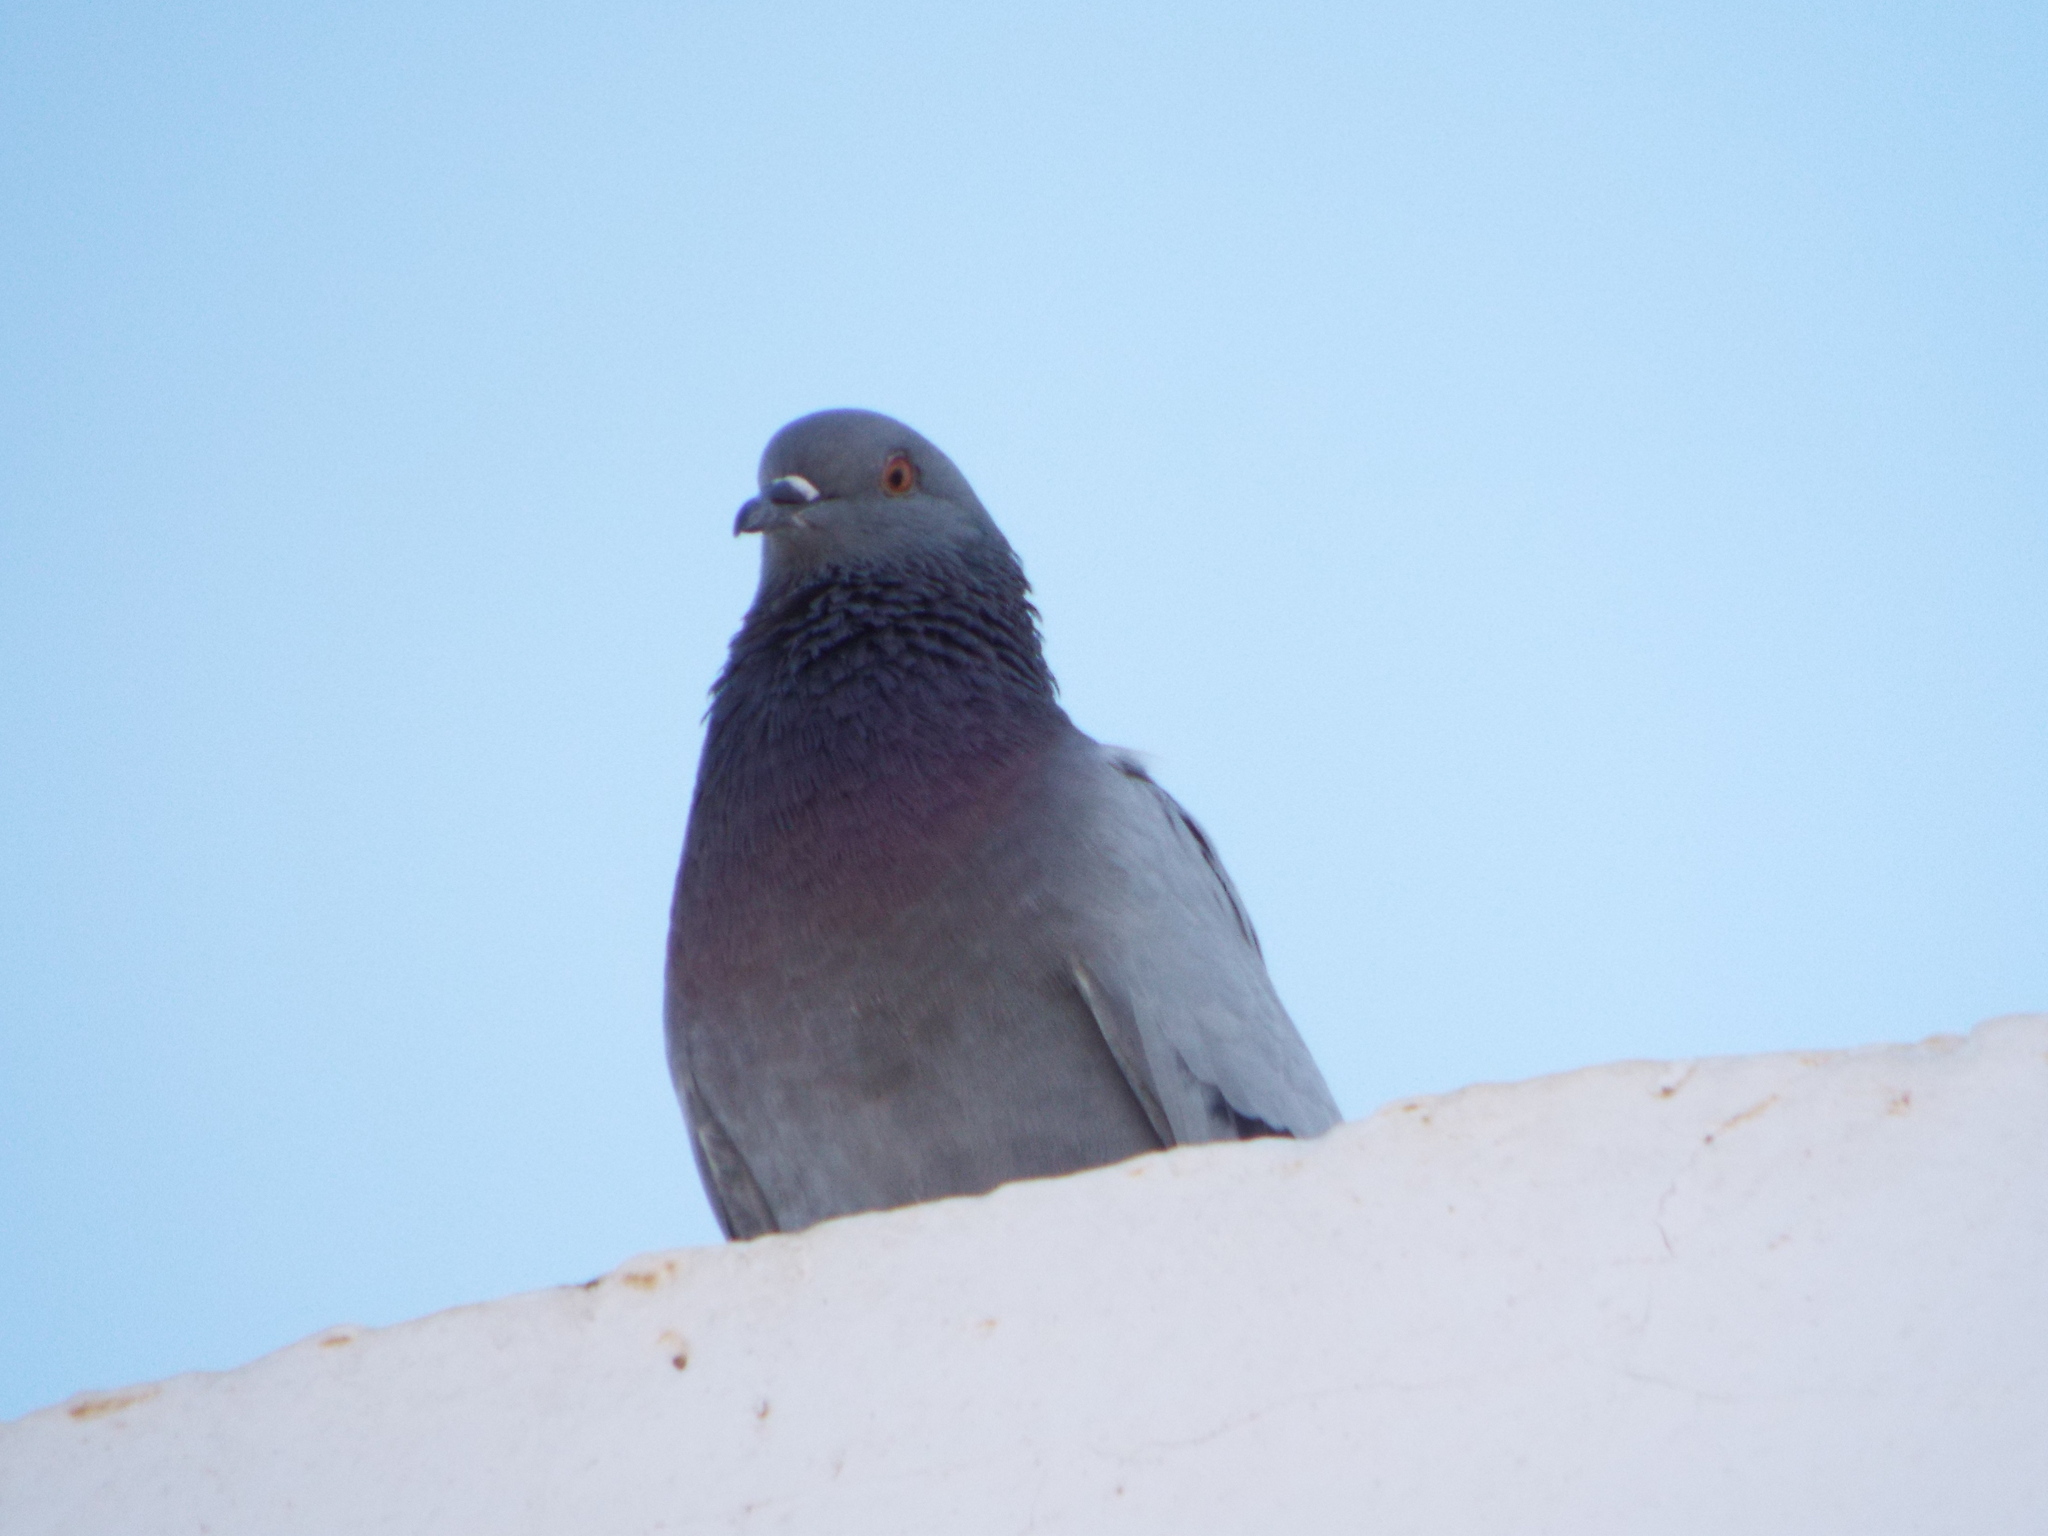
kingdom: Animalia
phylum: Chordata
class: Aves
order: Columbiformes
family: Columbidae
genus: Columba
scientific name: Columba livia
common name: Rock pigeon
